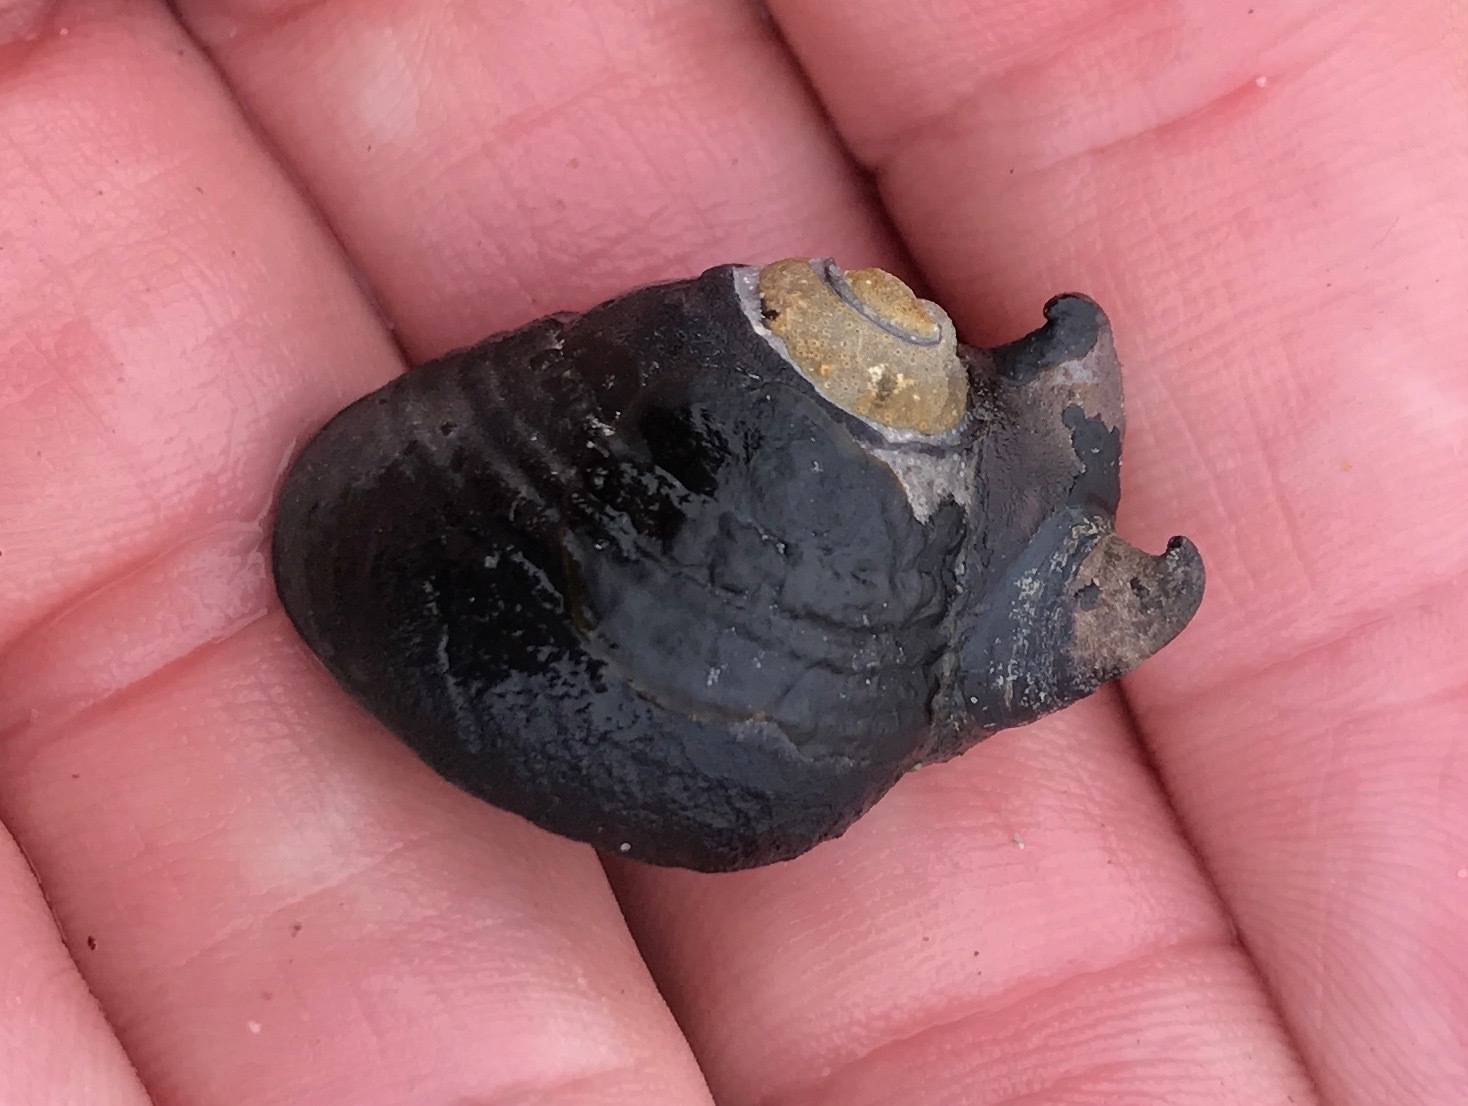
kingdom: Animalia
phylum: Mollusca
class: Gastropoda
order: Trochida
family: Tegulidae
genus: Tegula
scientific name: Tegula funebralis
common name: Black tegula
